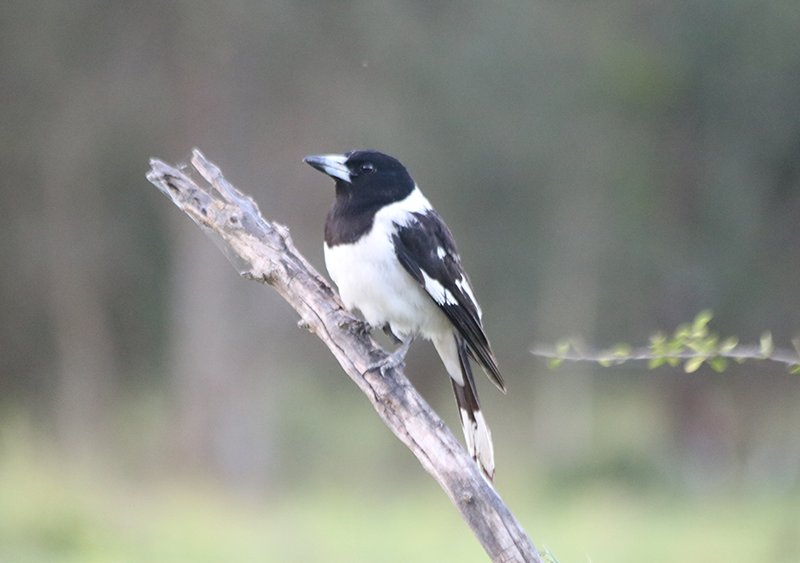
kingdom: Animalia
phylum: Chordata
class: Aves
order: Passeriformes
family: Cracticidae
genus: Cracticus
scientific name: Cracticus nigrogularis
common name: Pied butcherbird
